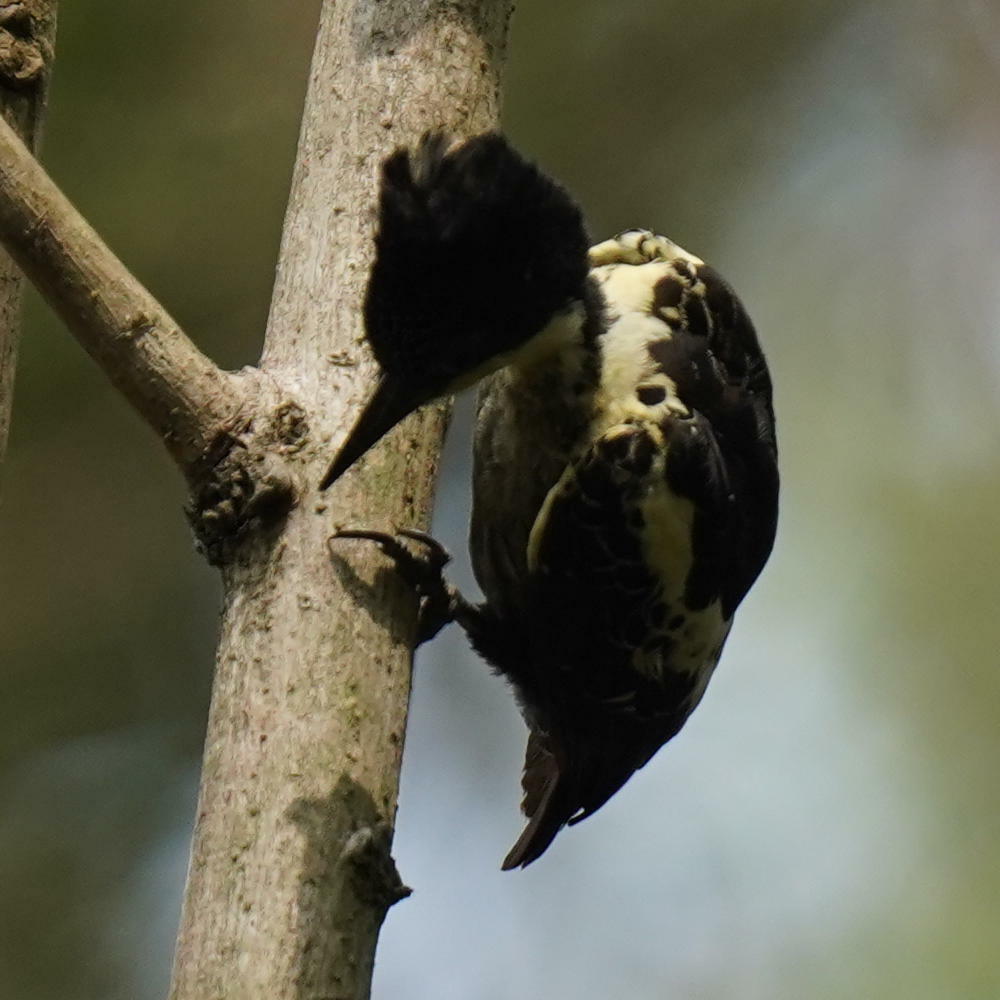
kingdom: Animalia
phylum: Chordata
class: Aves
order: Piciformes
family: Picidae
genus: Hemicircus
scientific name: Hemicircus canente
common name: Heart-spotted woodpecker
